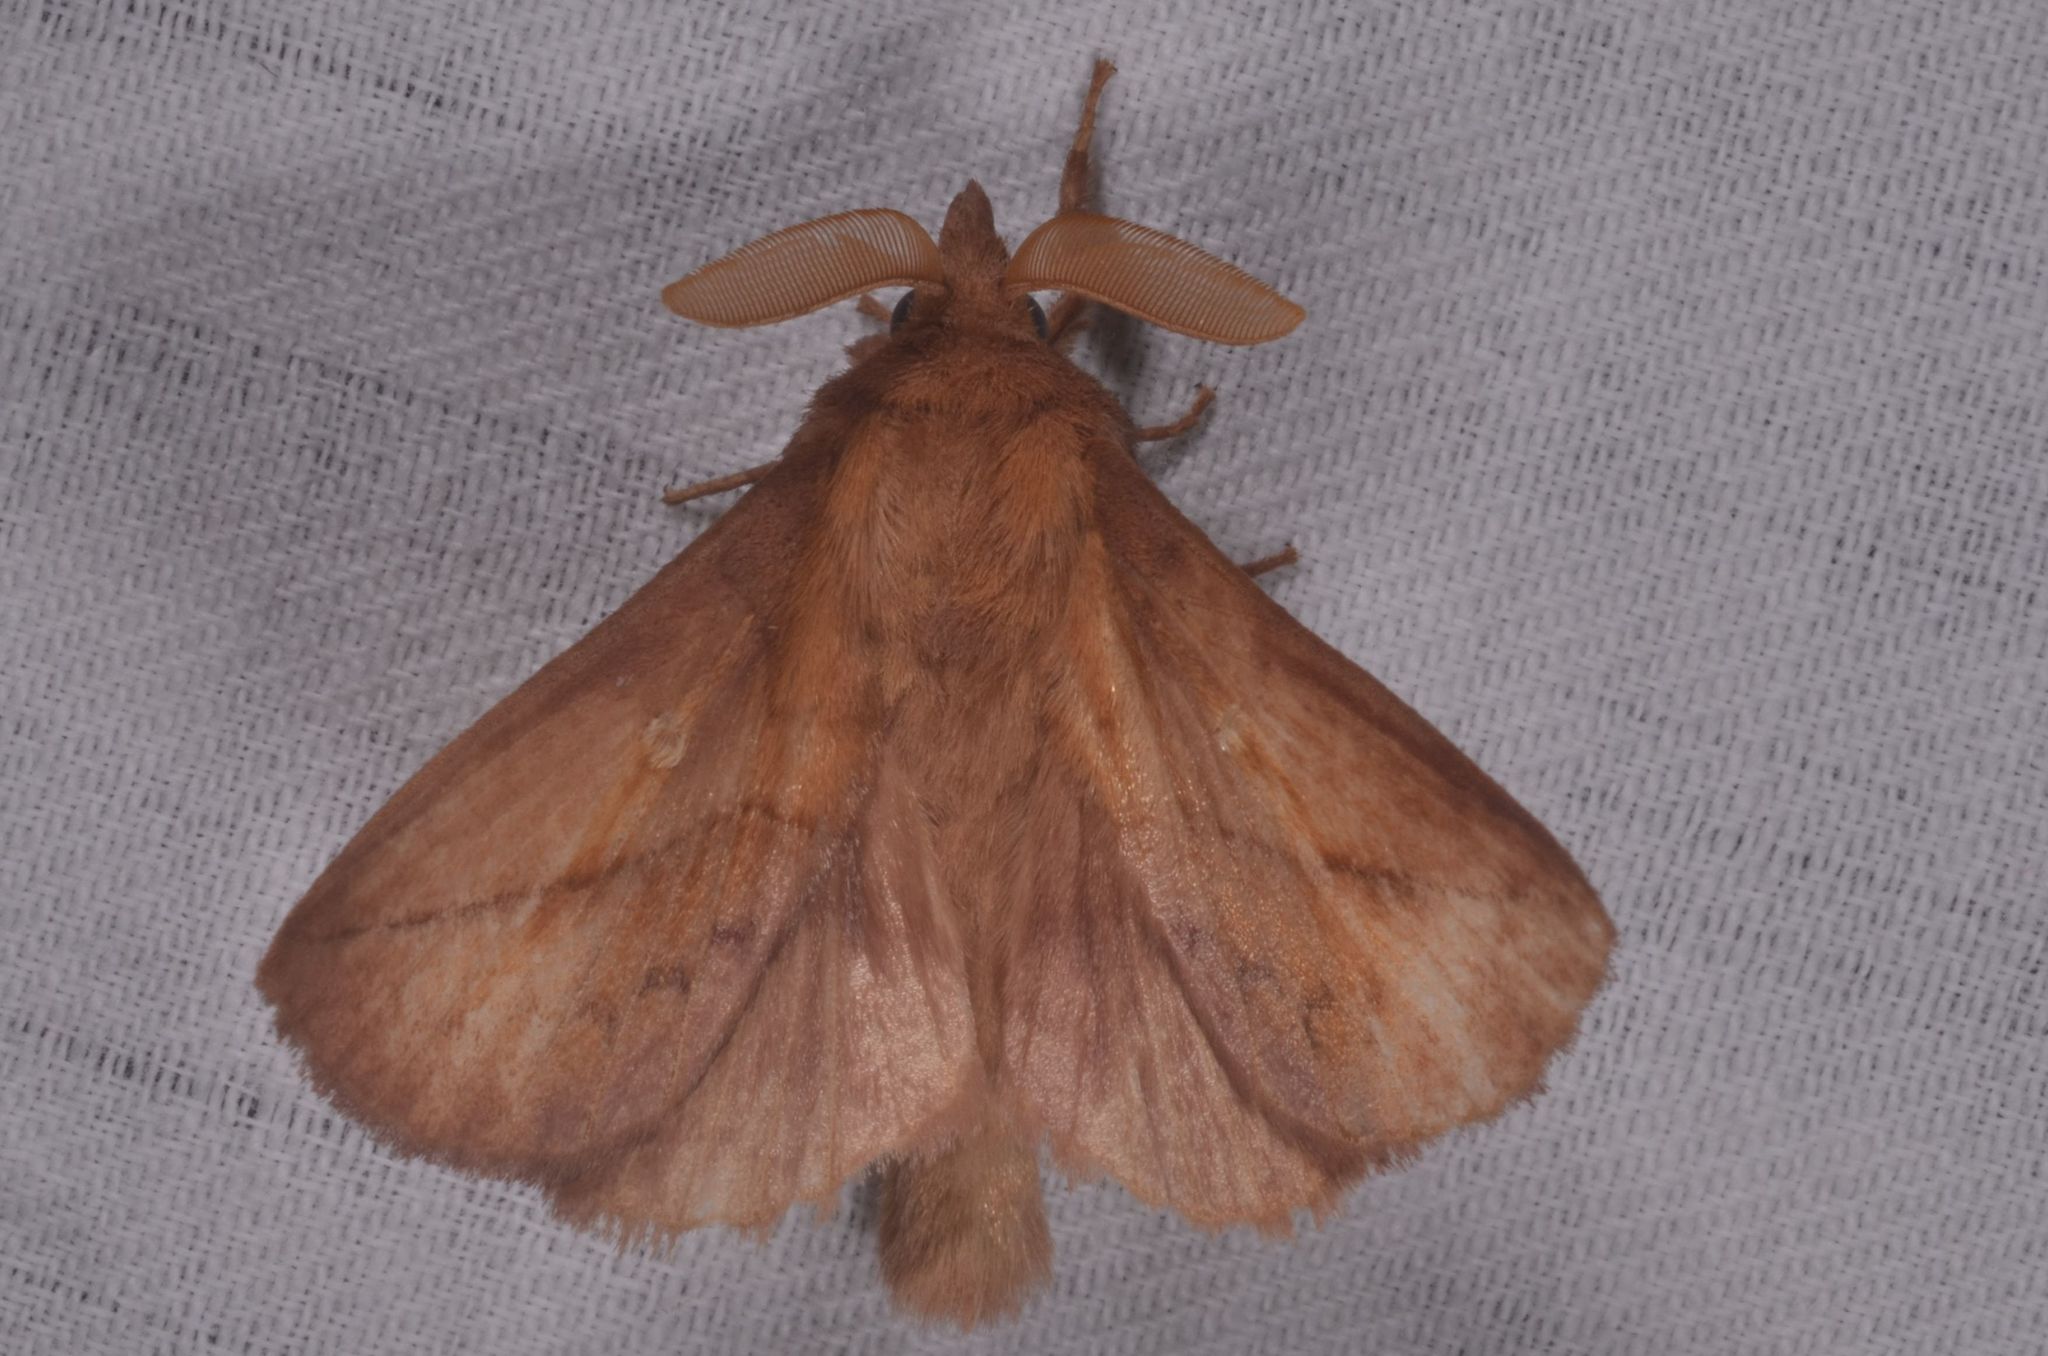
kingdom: Animalia
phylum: Arthropoda
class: Insecta
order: Lepidoptera
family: Lasiocampidae
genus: Euthrix
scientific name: Euthrix potatoria
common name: Drinker
